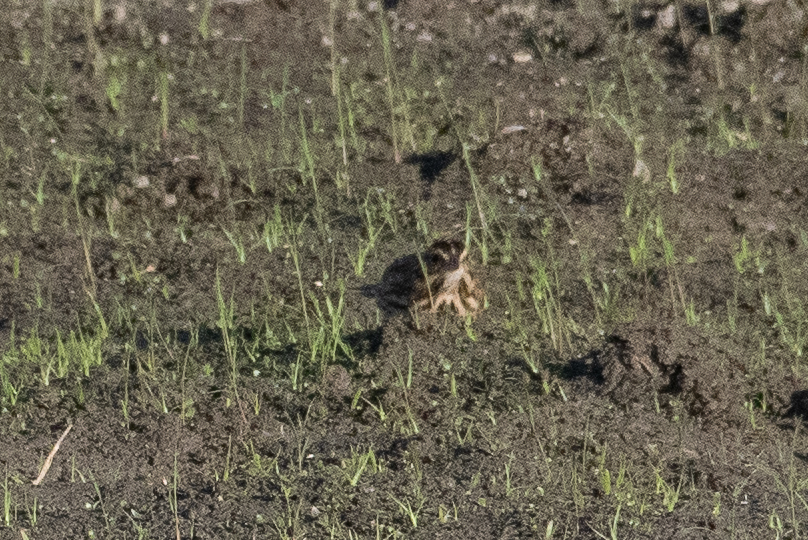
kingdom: Animalia
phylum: Chordata
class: Aves
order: Passeriformes
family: Passerellidae
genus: Passerculus
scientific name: Passerculus sandwichensis
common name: Savannah sparrow
